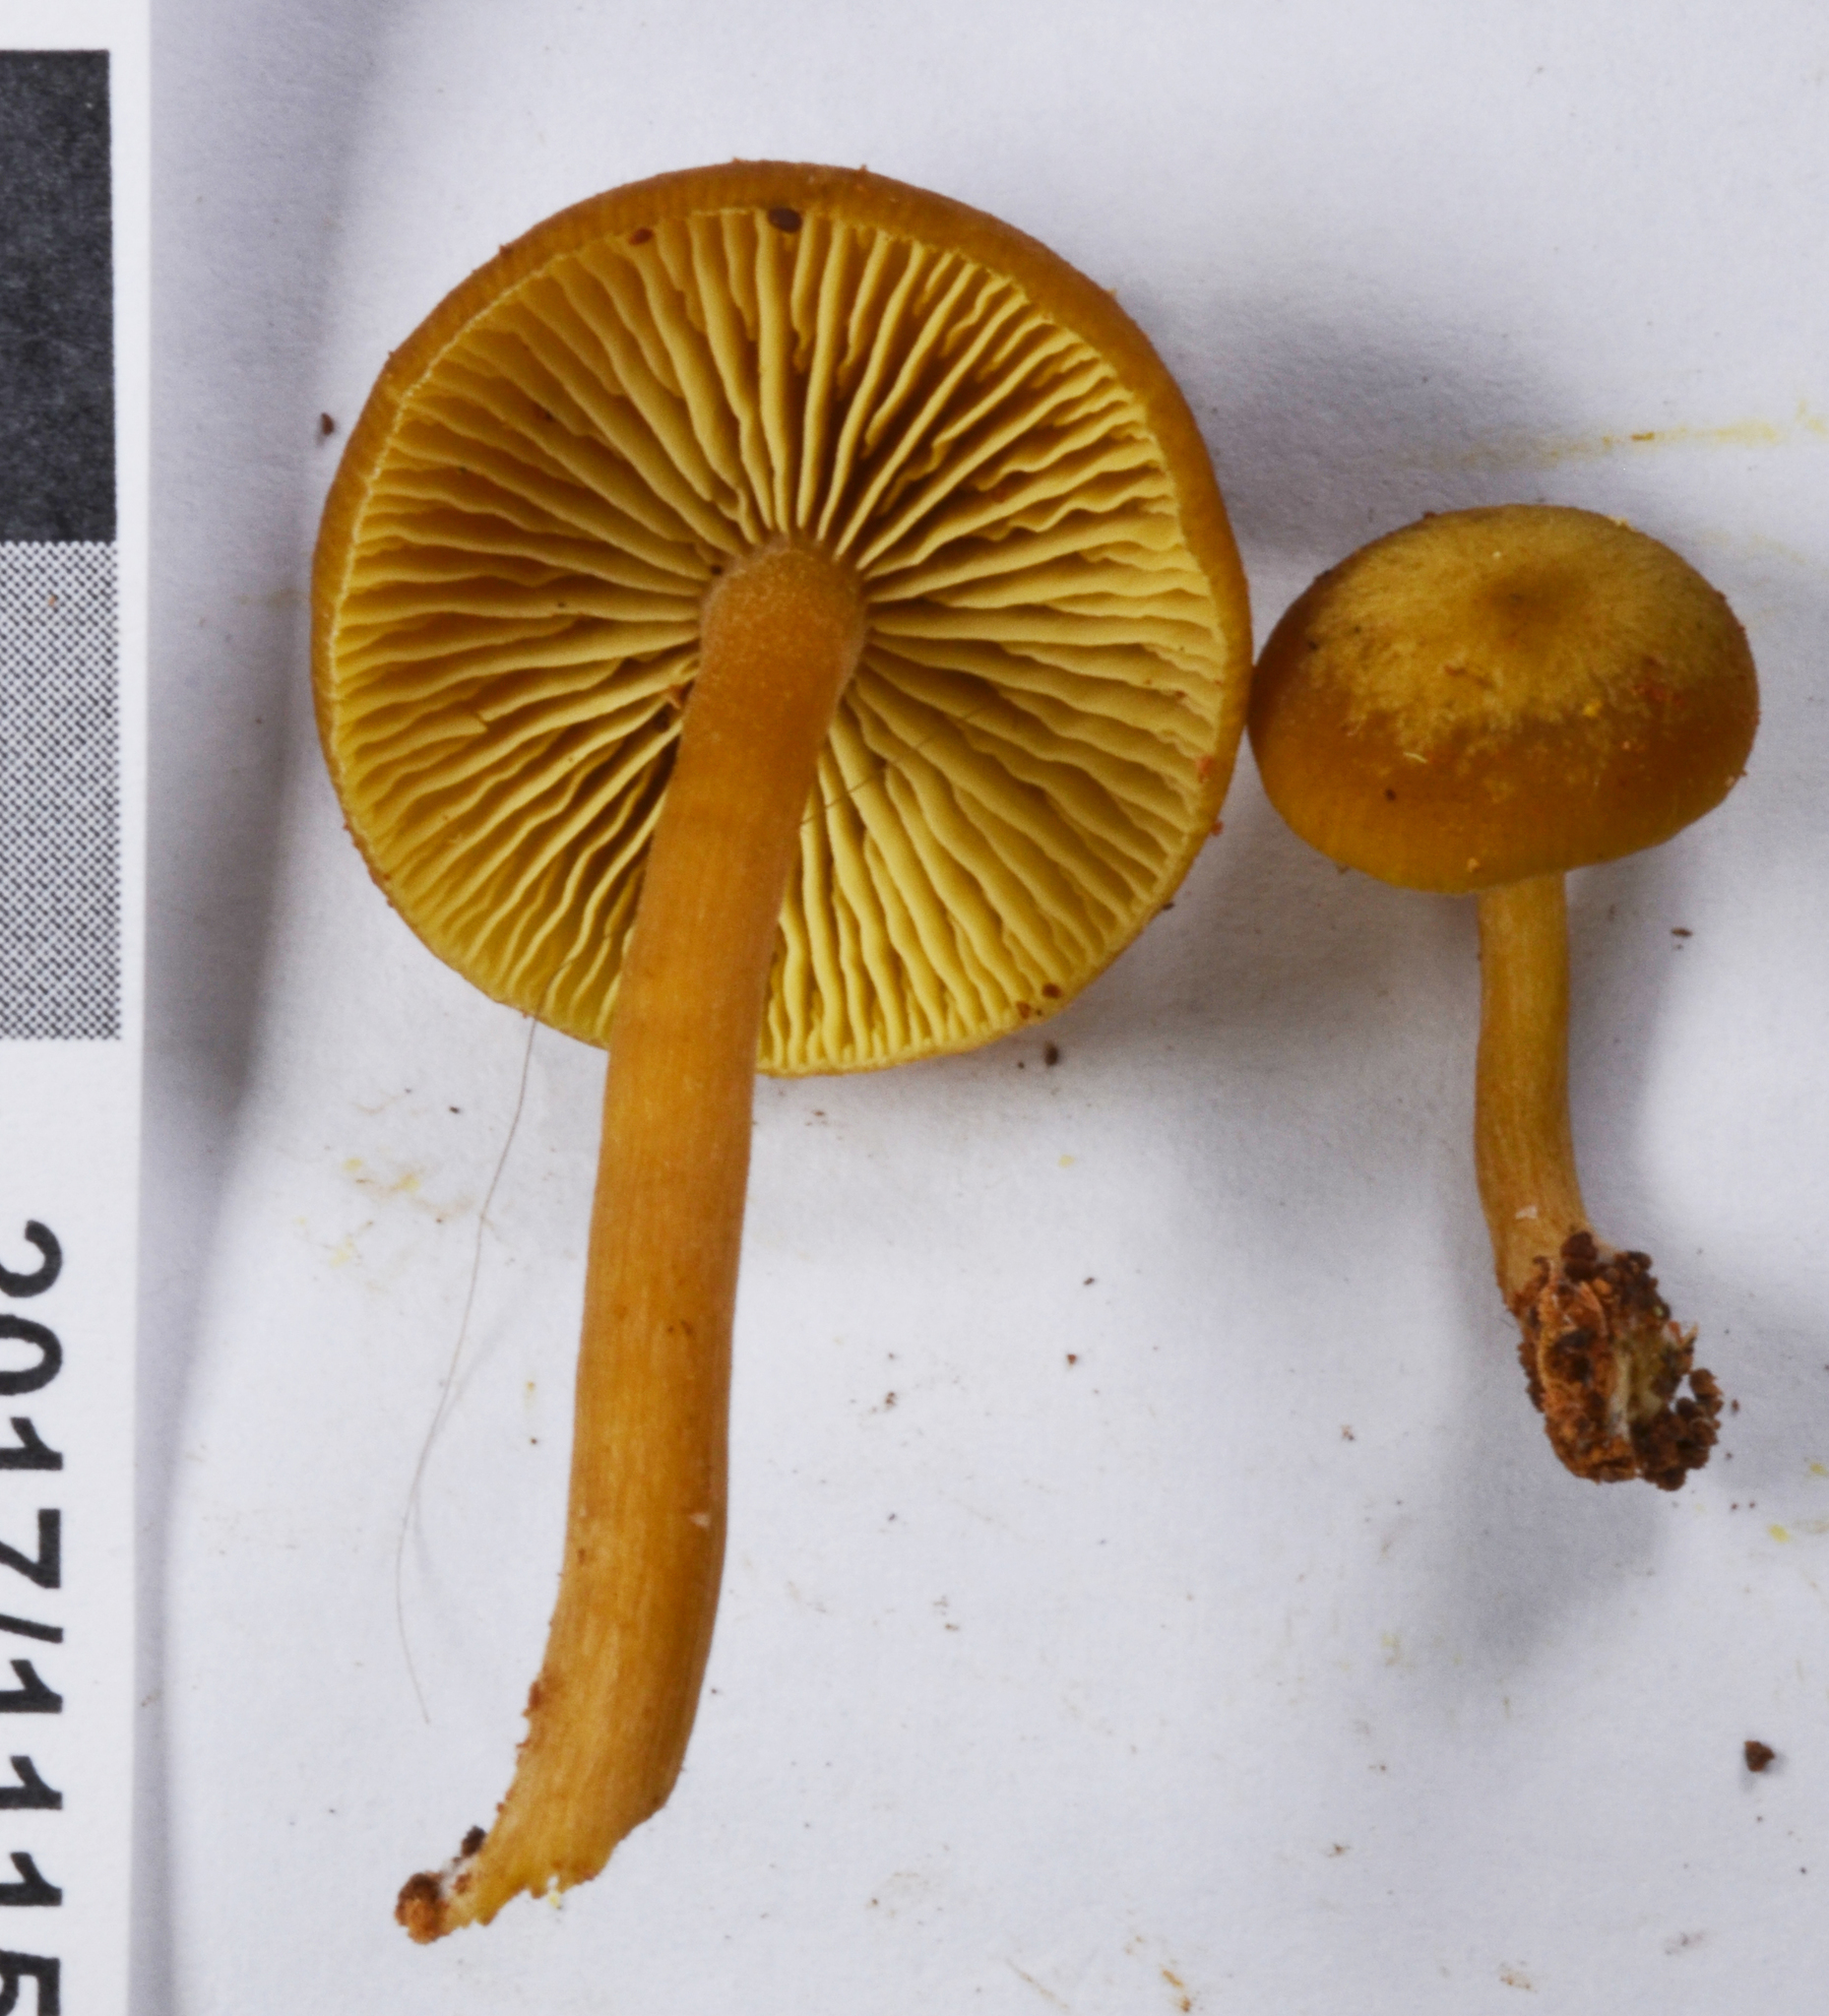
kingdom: Fungi
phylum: Basidiomycota
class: Agaricomycetes
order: Agaricales
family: Callistosporiaceae
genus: Callistosporium
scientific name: Callistosporium
